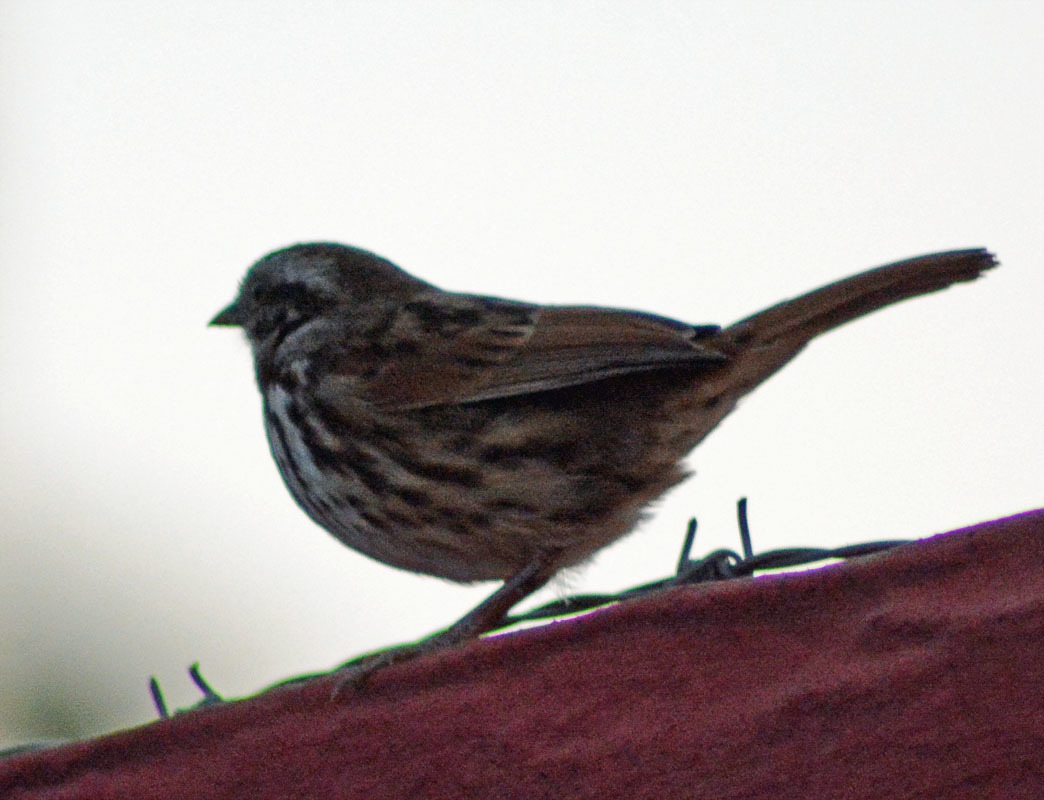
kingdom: Animalia
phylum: Chordata
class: Aves
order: Passeriformes
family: Passerellidae
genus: Melospiza
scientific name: Melospiza melodia
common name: Song sparrow
